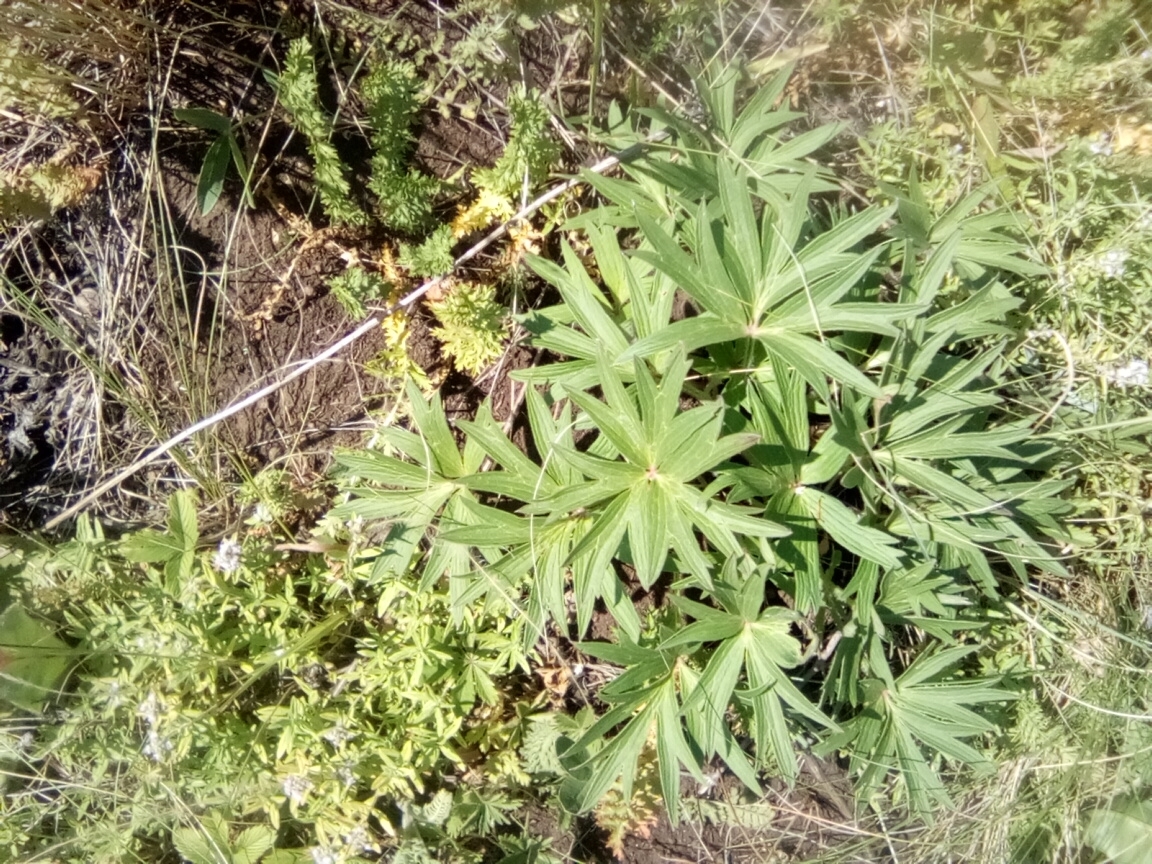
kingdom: Plantae
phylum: Tracheophyta
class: Magnoliopsida
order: Ranunculales
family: Ranunculaceae
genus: Pulsatilla
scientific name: Pulsatilla patens
